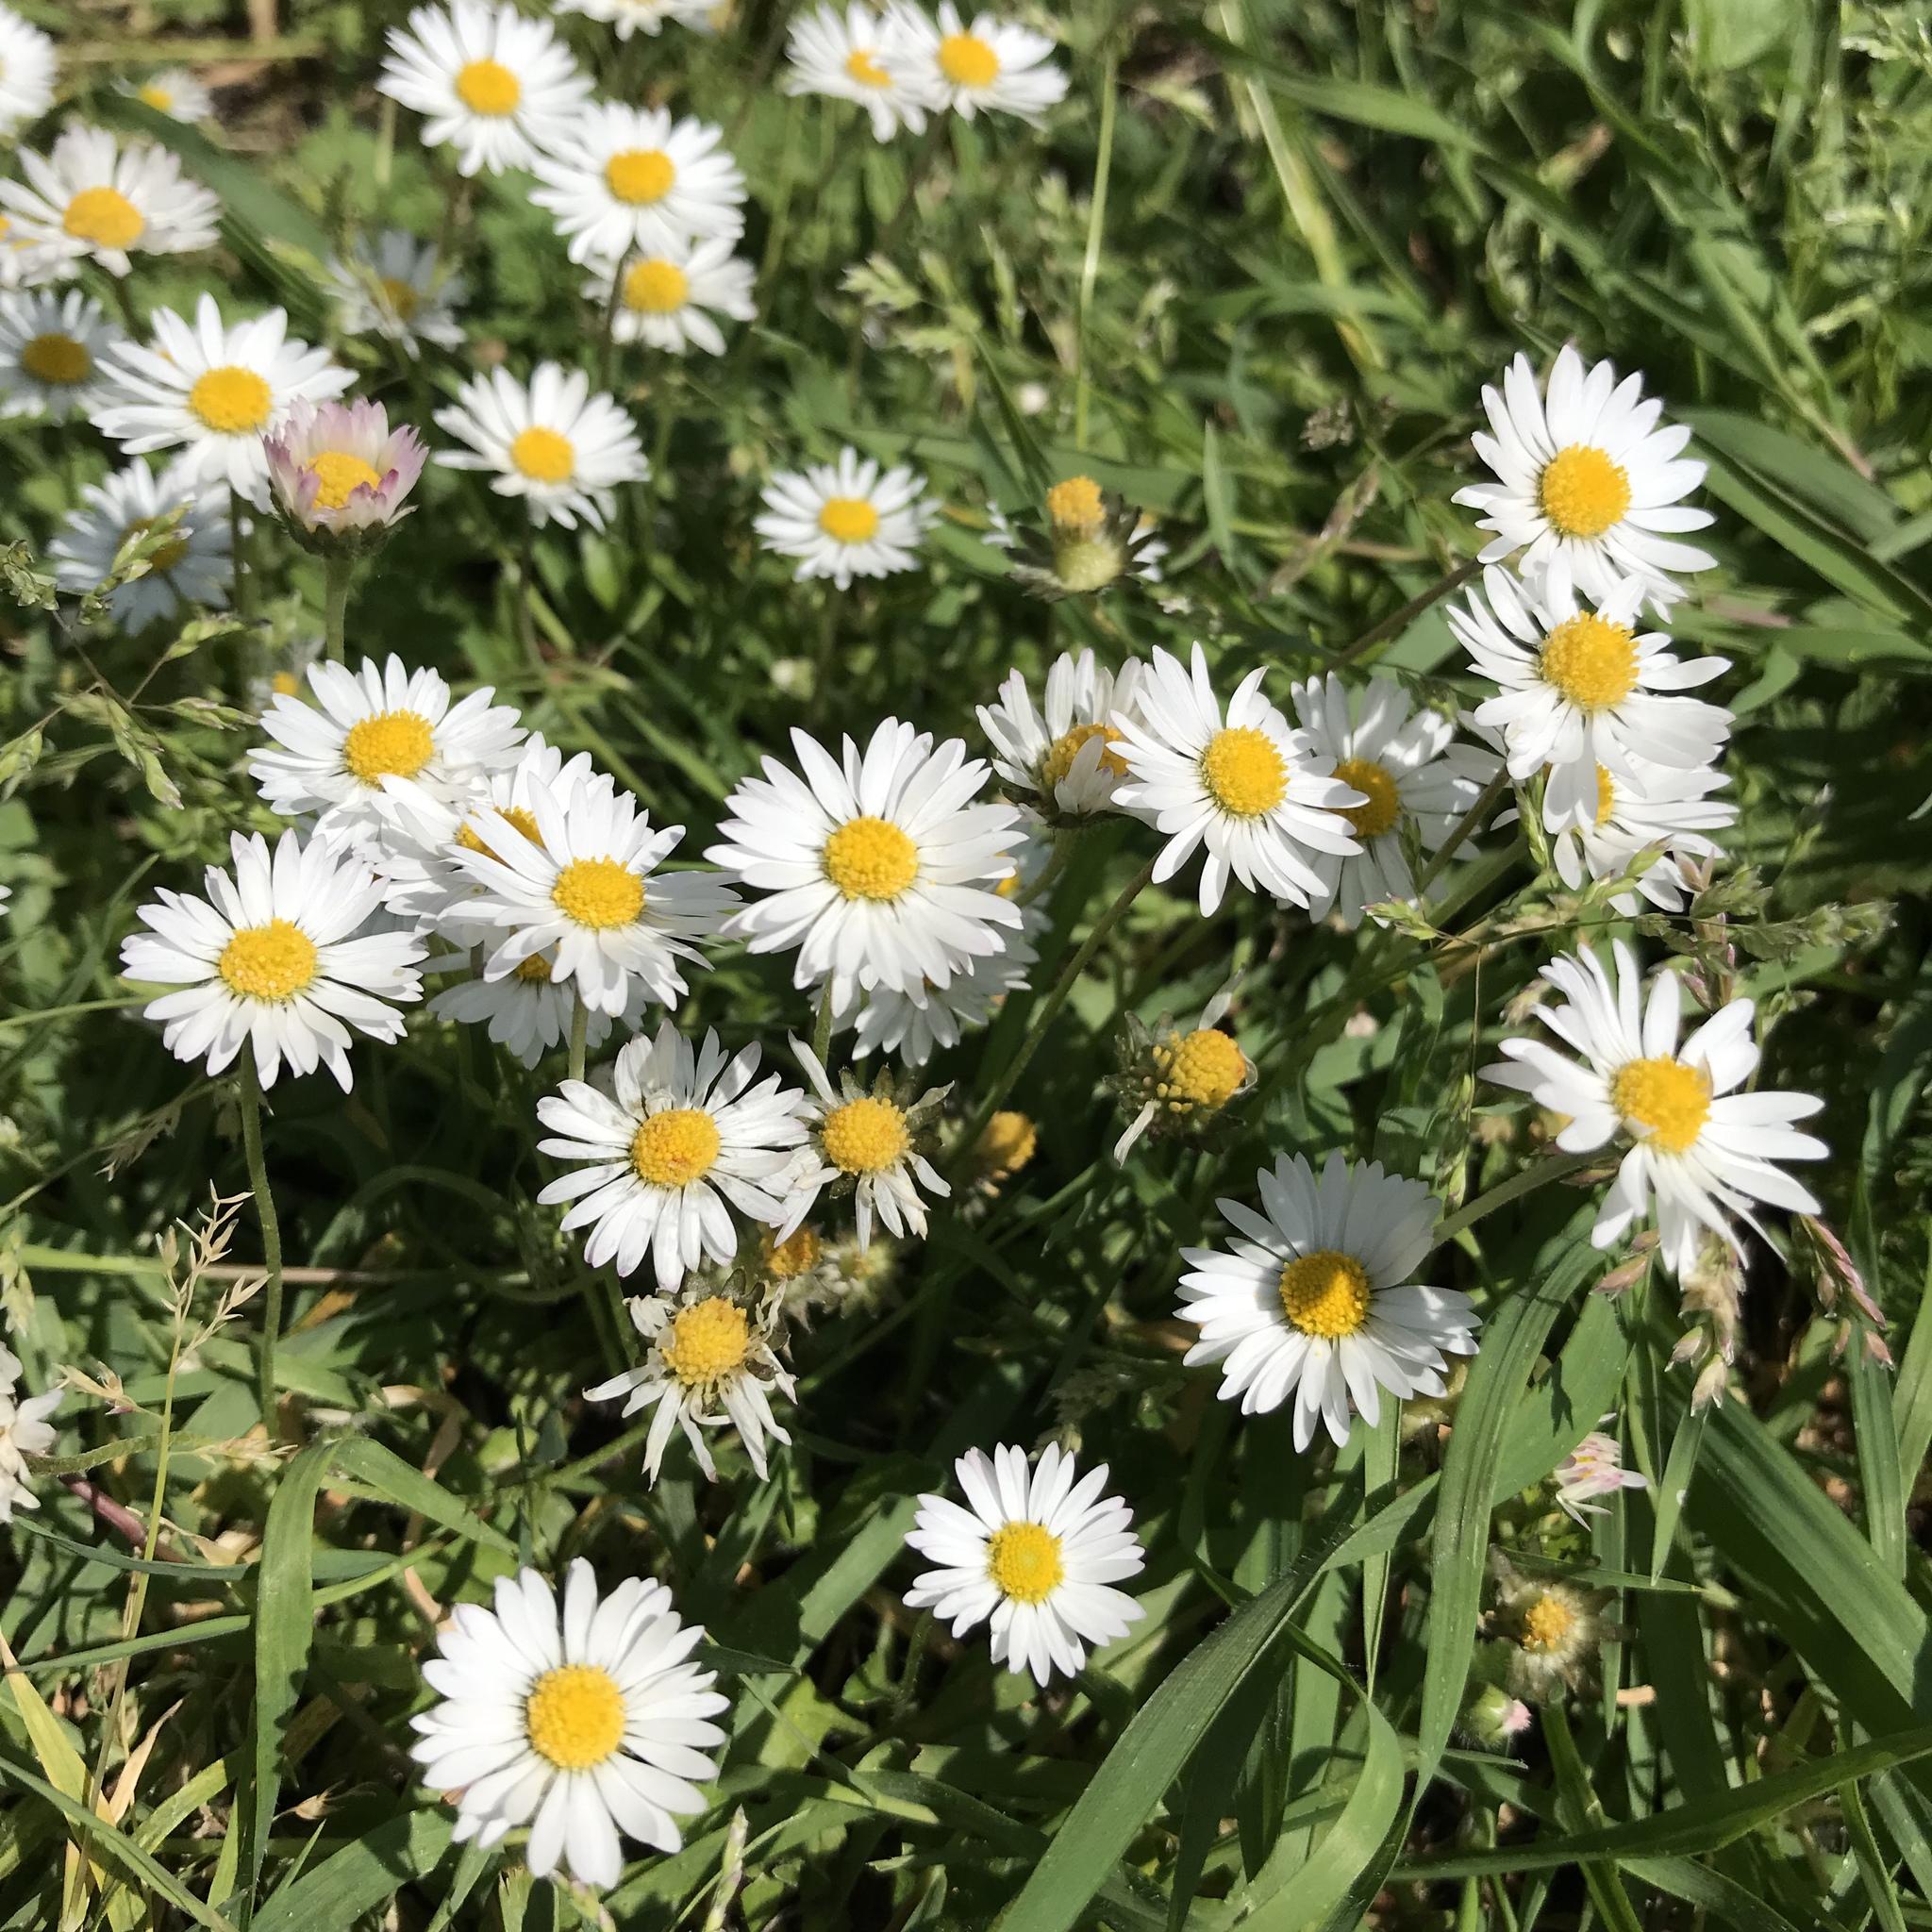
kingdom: Plantae
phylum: Tracheophyta
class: Magnoliopsida
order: Asterales
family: Asteraceae
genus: Bellis
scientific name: Bellis perennis
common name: Lawndaisy
